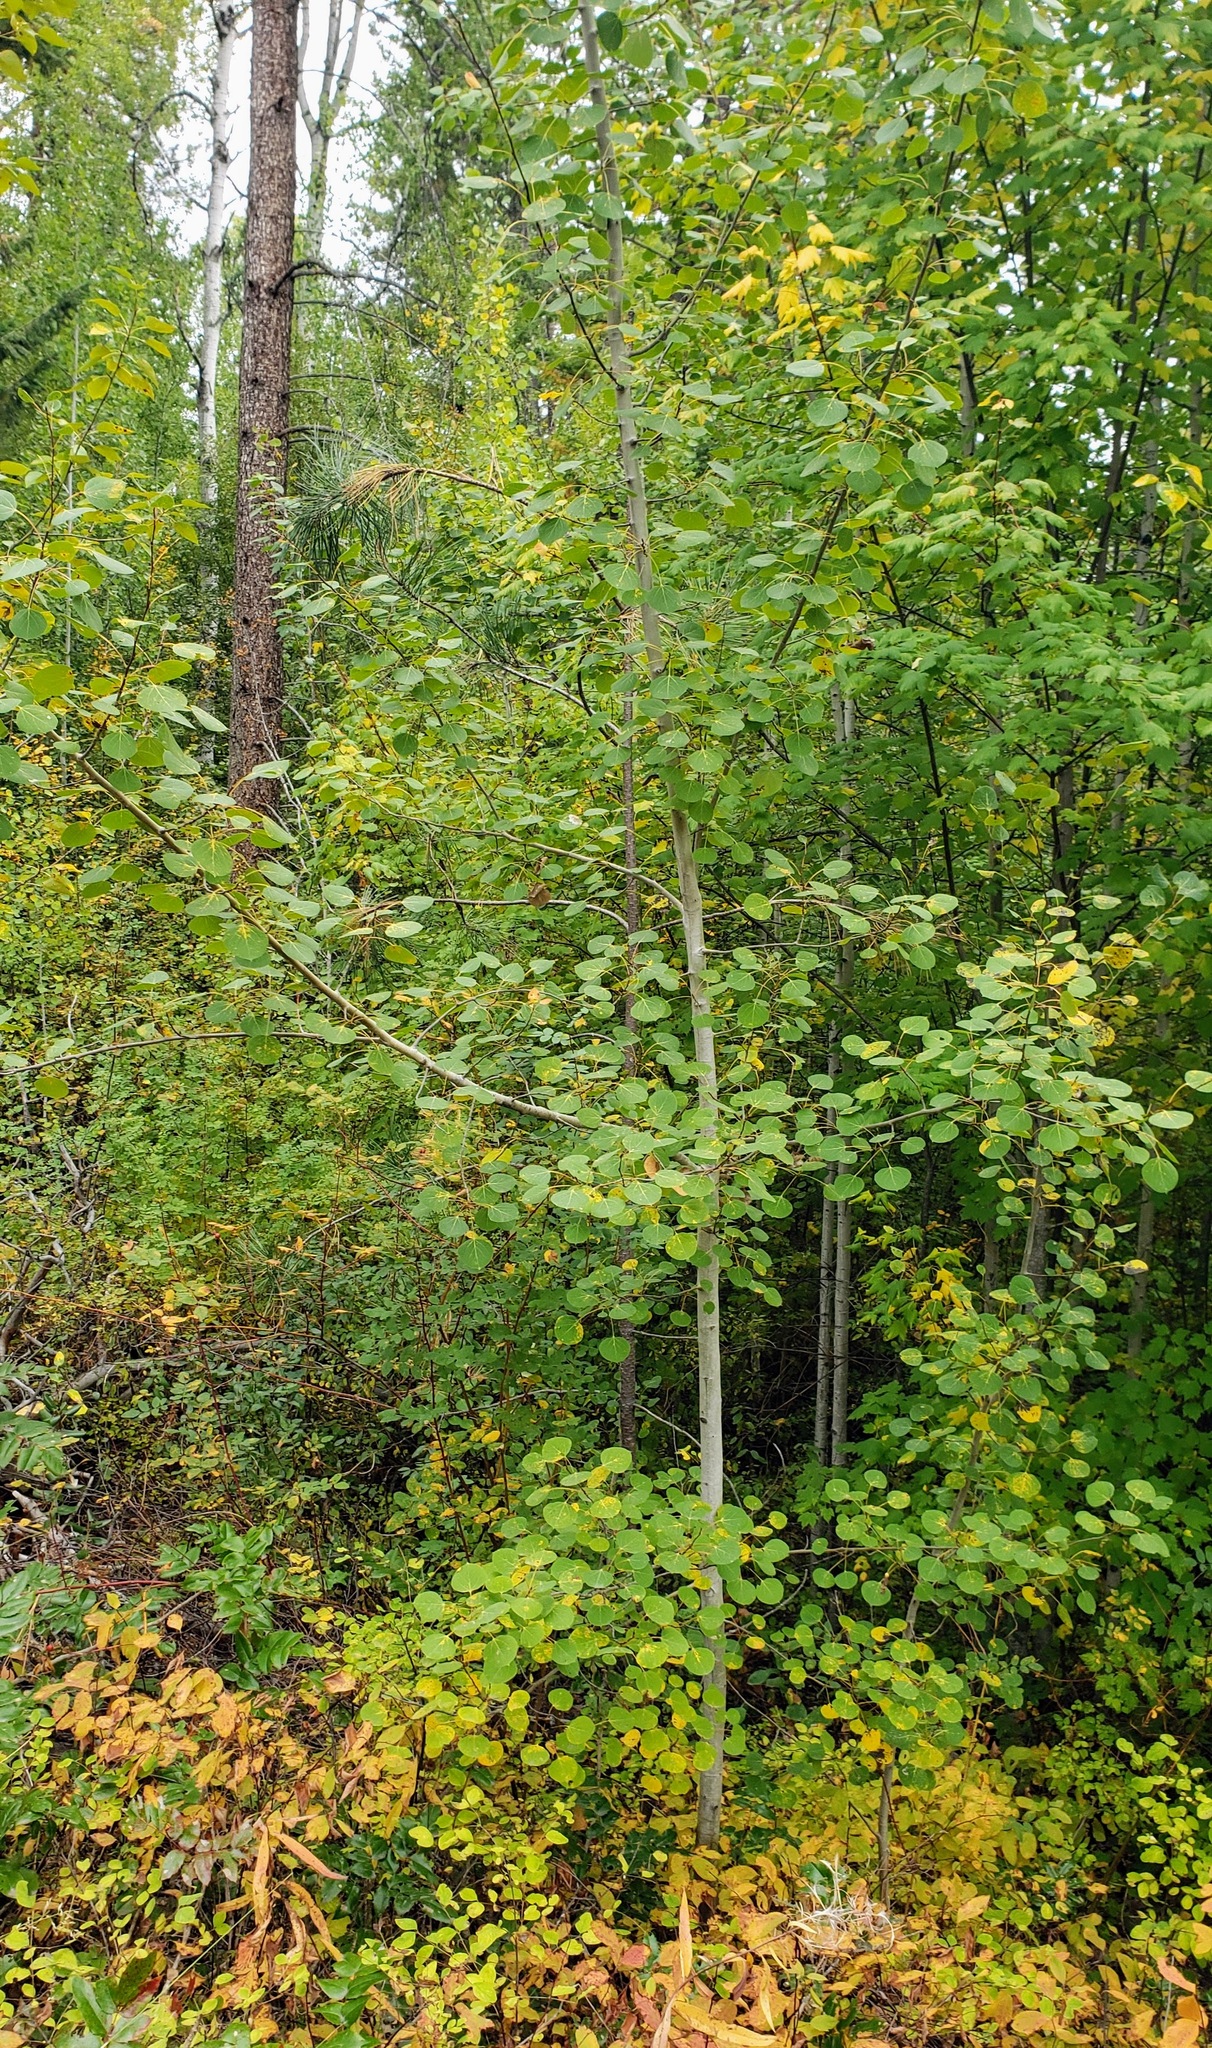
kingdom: Plantae
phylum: Tracheophyta
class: Magnoliopsida
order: Malpighiales
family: Salicaceae
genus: Populus
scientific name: Populus tremuloides
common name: Quaking aspen
